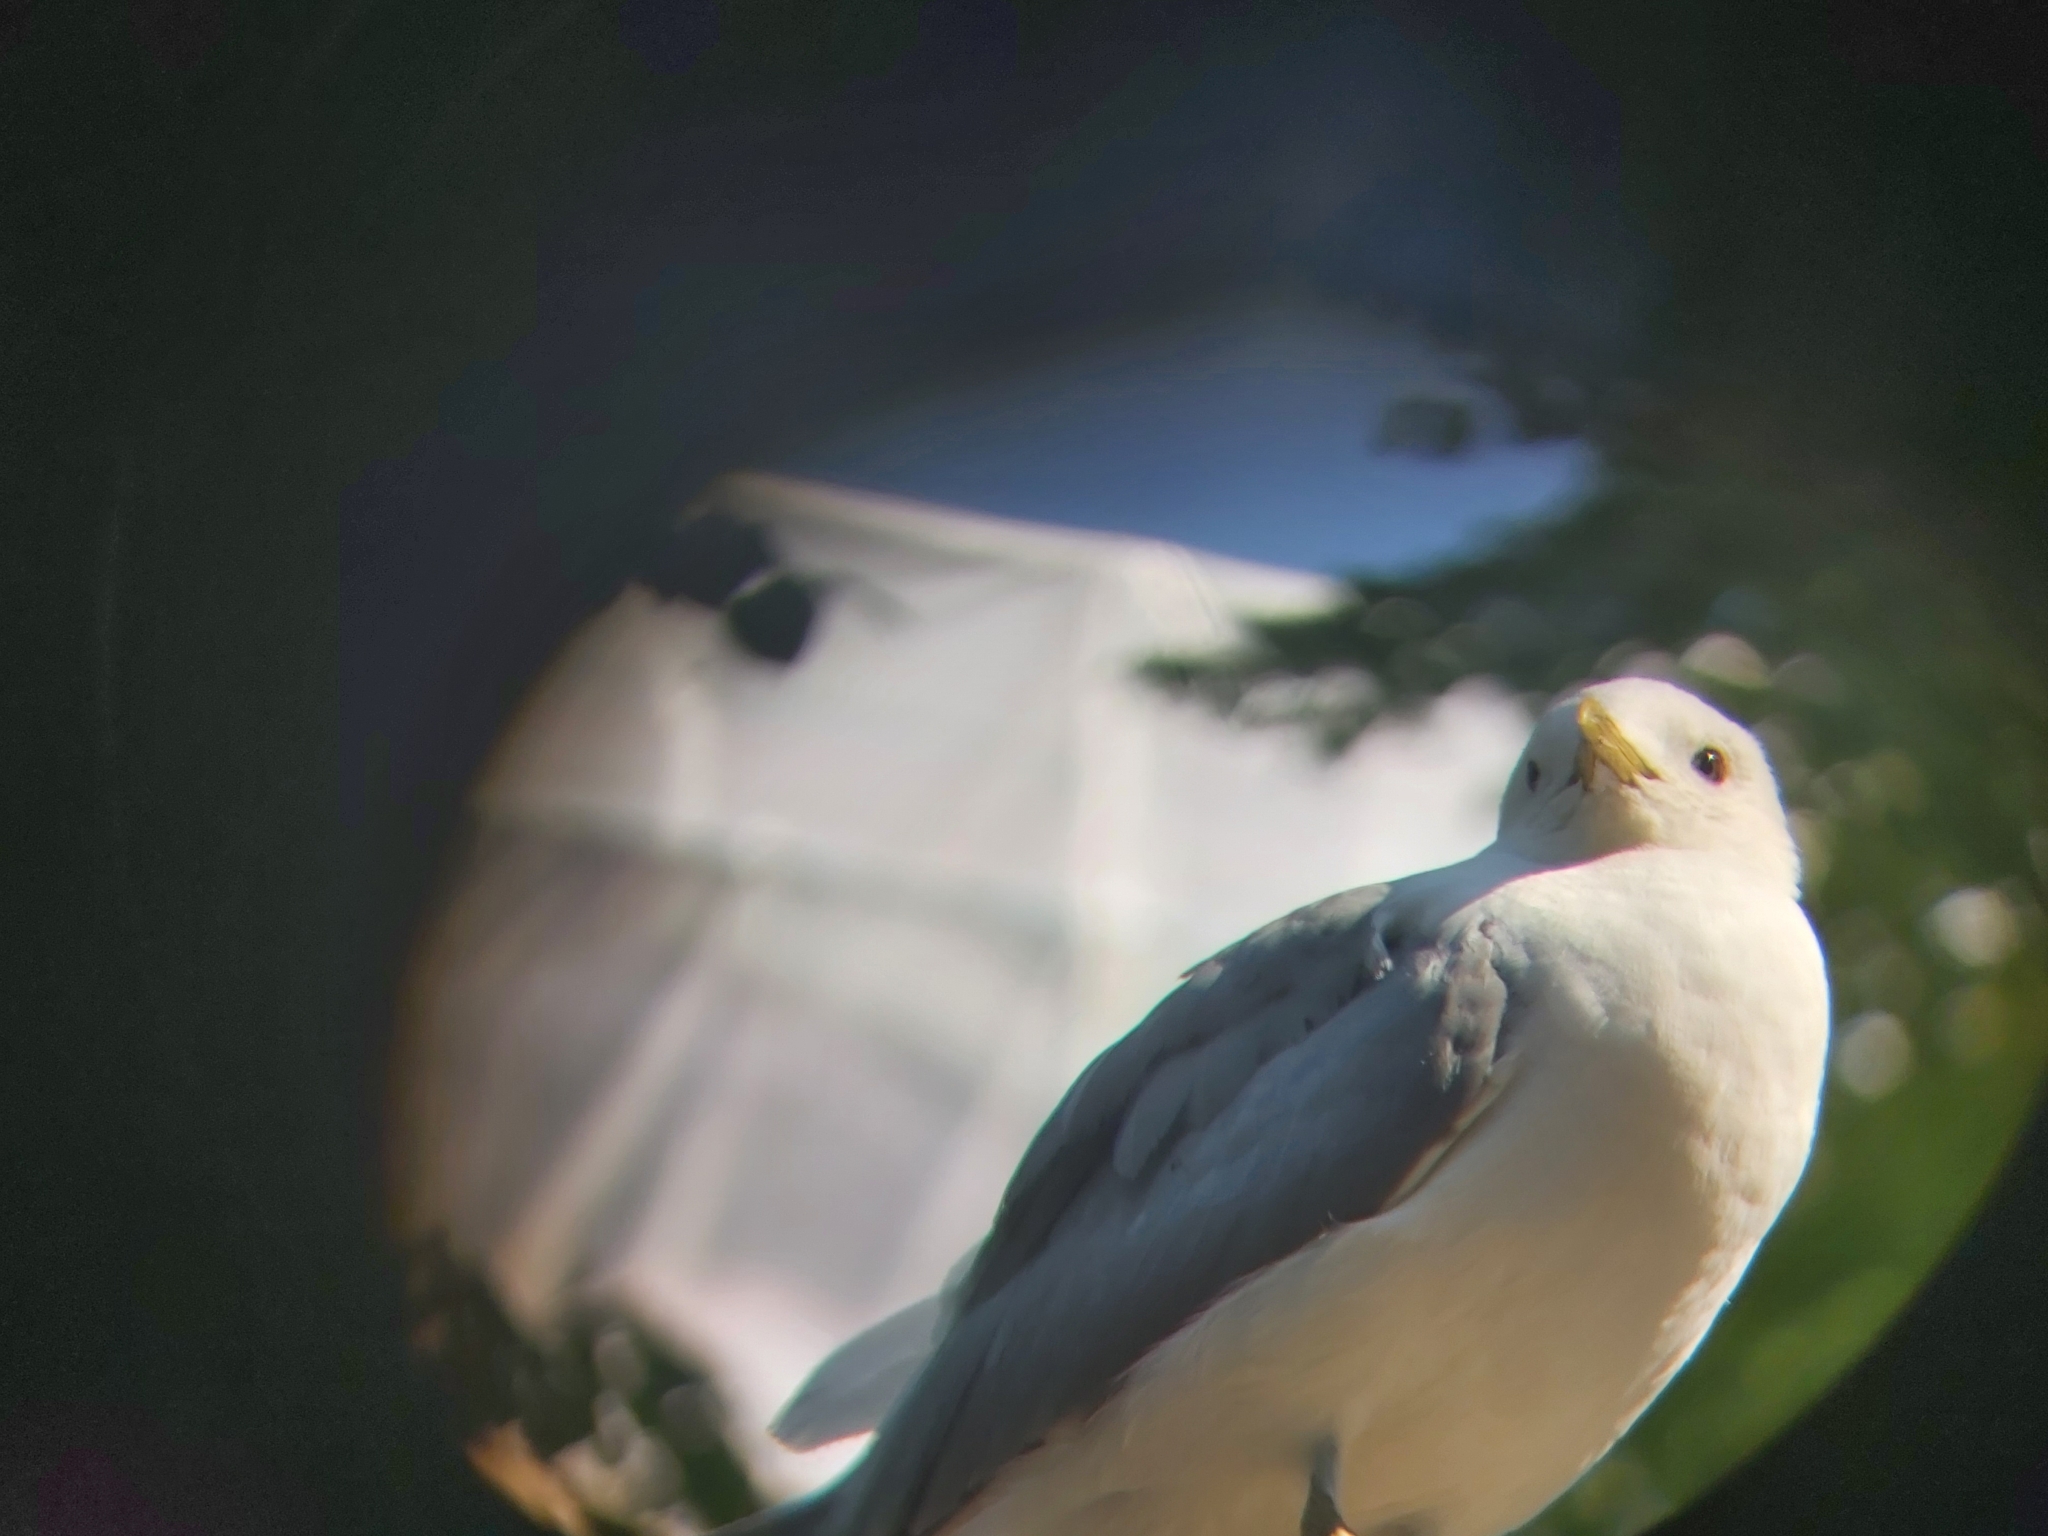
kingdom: Animalia
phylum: Chordata
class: Aves
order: Charadriiformes
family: Laridae
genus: Larus
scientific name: Larus canus
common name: Mew gull
